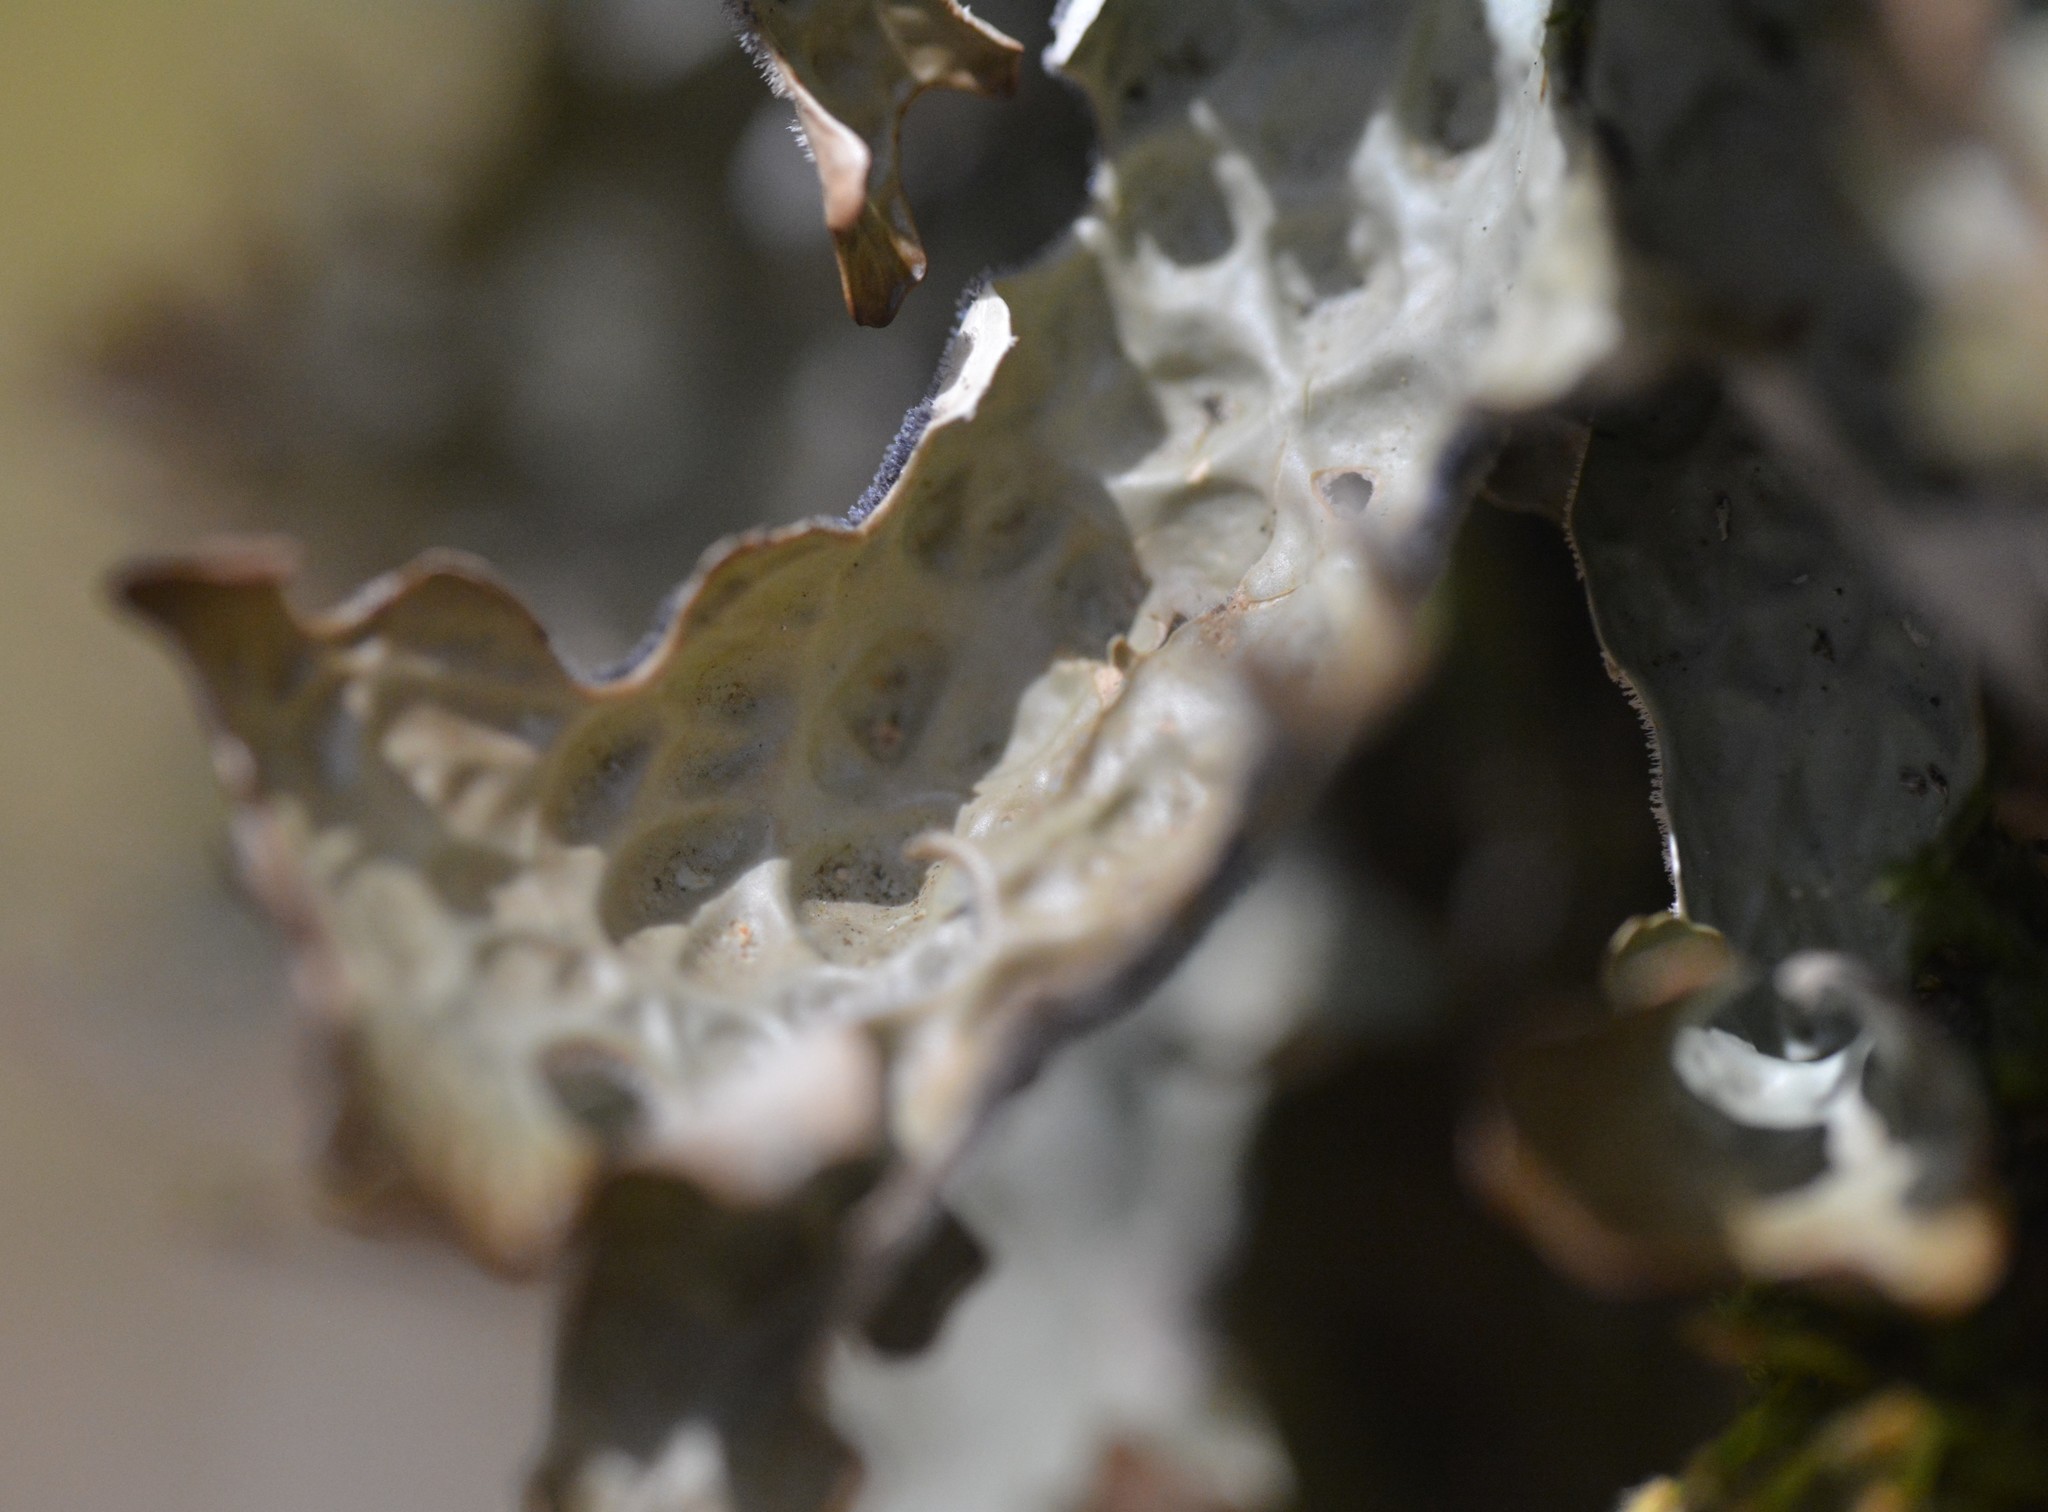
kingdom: Fungi
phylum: Ascomycota
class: Lecanoromycetes
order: Peltigerales
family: Lobariaceae
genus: Lobaria
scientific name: Lobaria pulmonaria
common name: Lungwort
